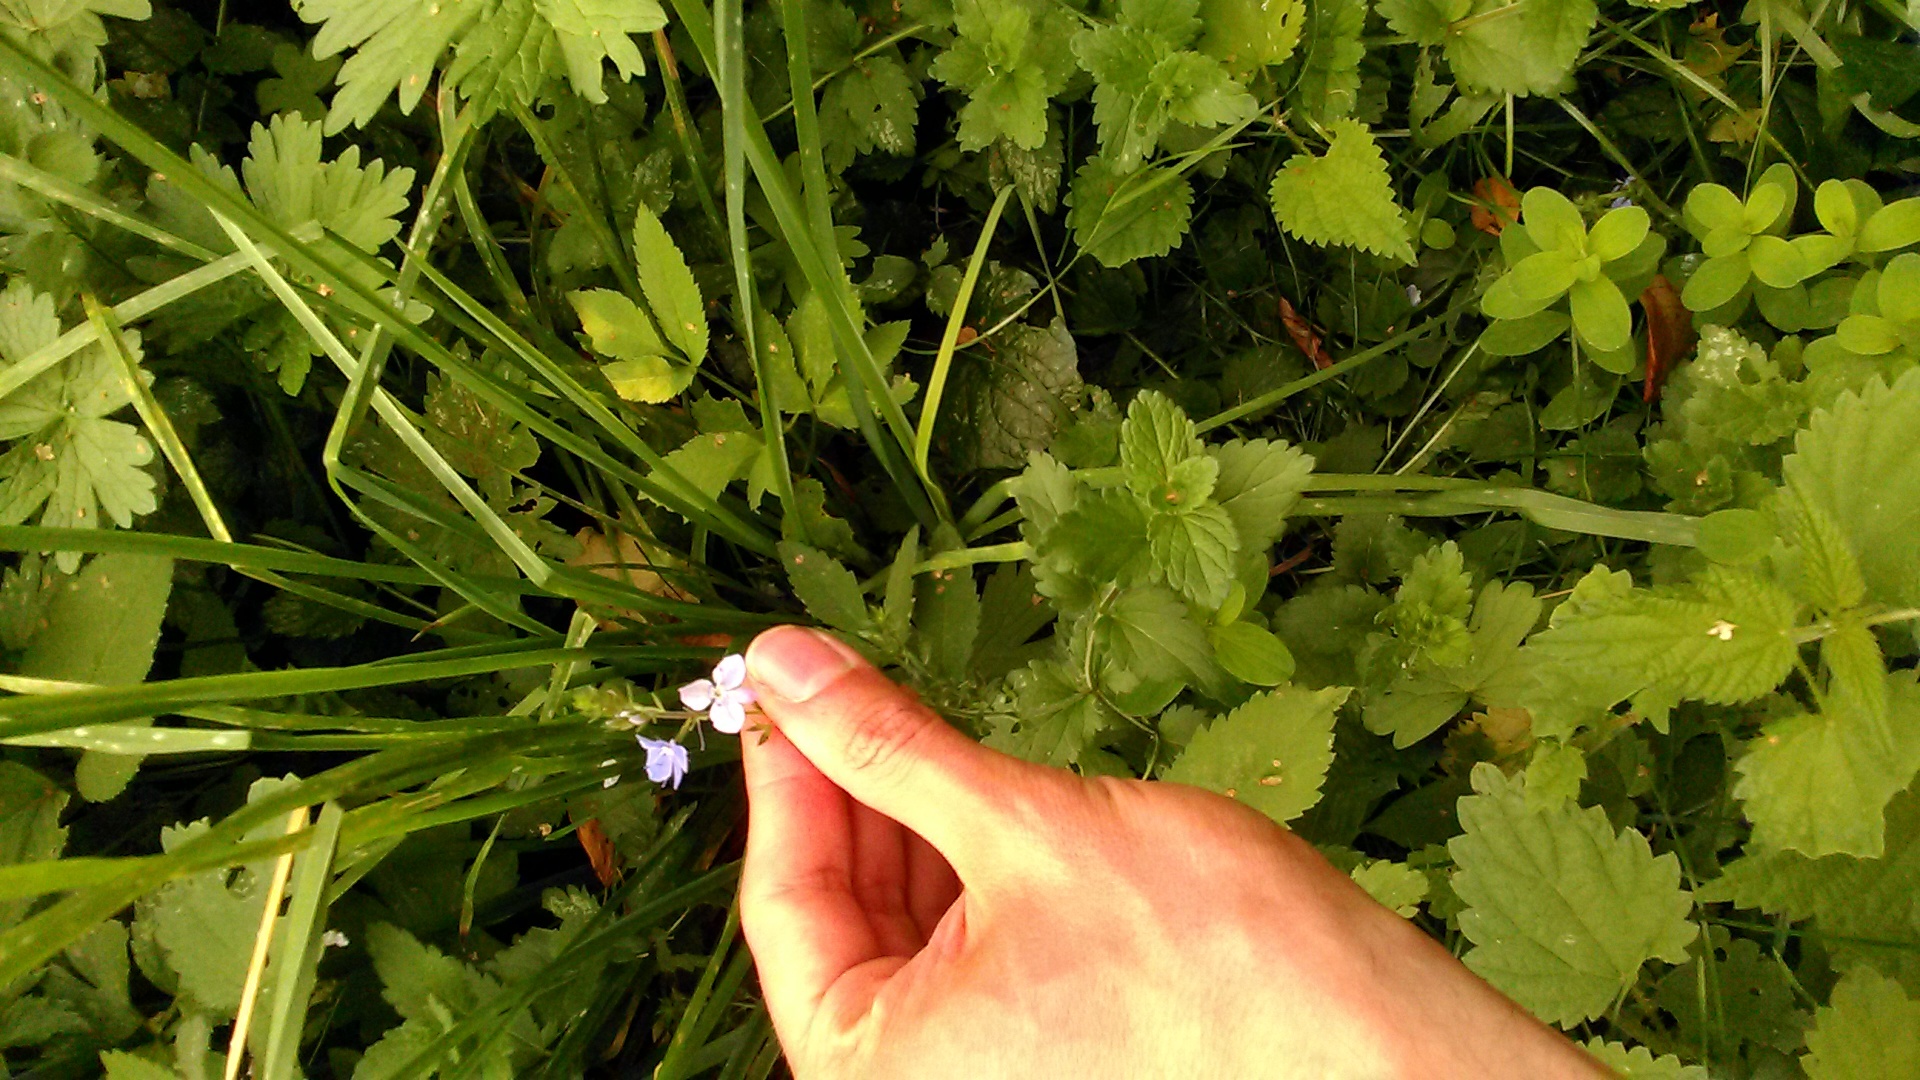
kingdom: Plantae
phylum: Tracheophyta
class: Magnoliopsida
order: Lamiales
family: Plantaginaceae
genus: Veronica
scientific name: Veronica chamaedrys
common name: Germander speedwell
